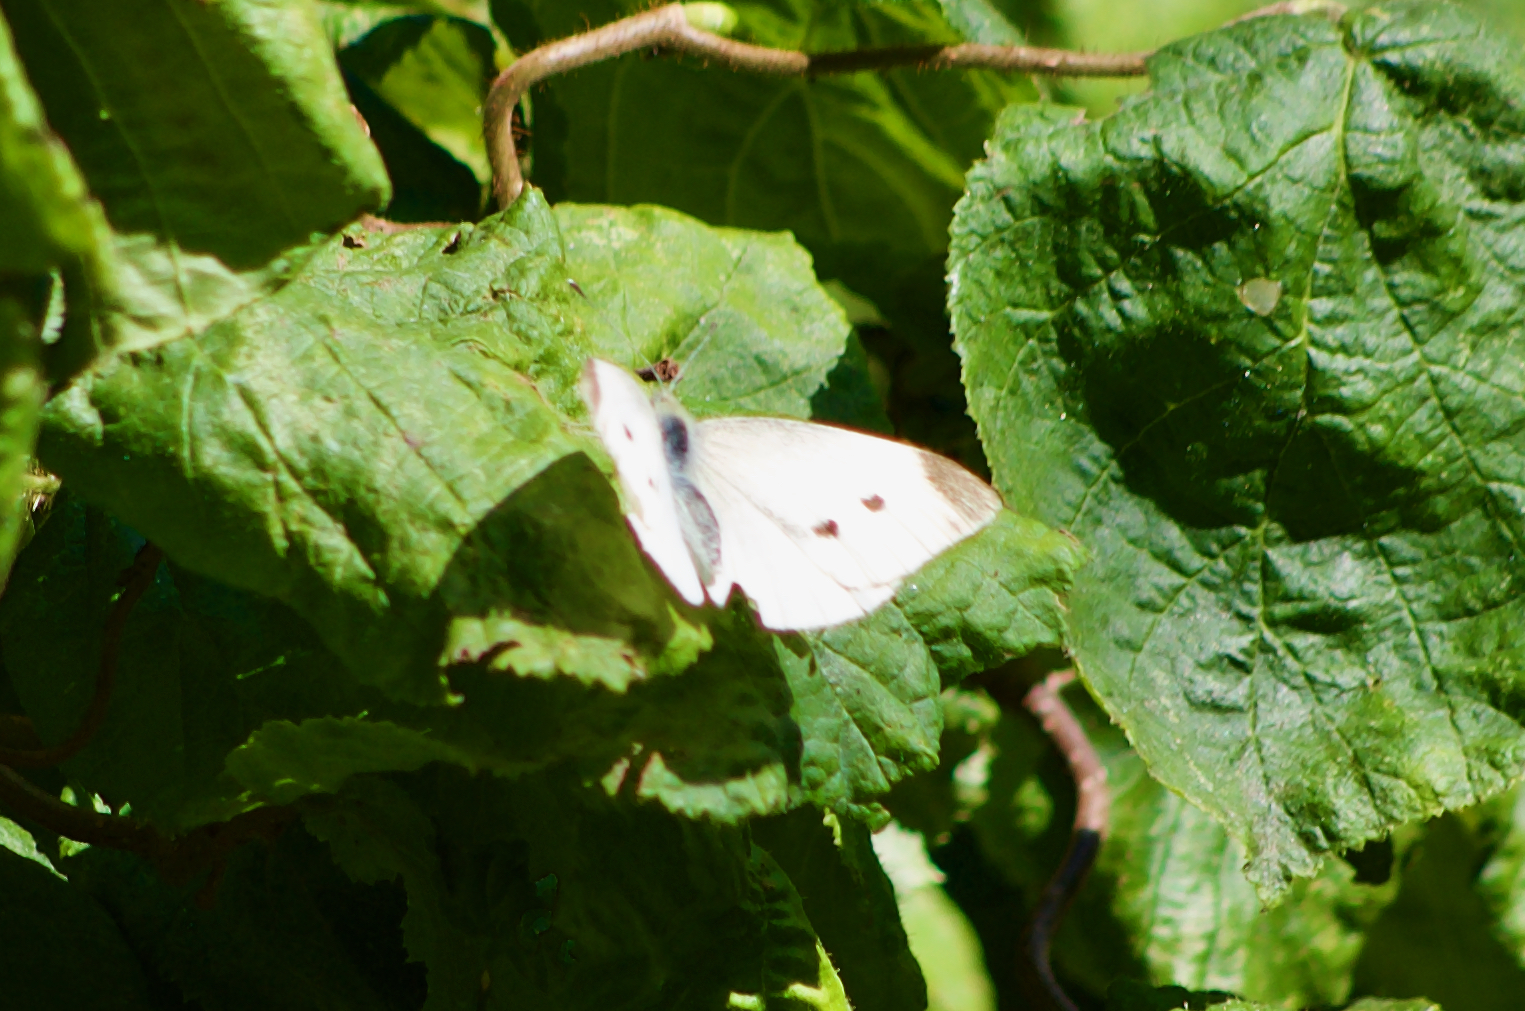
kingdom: Animalia
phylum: Arthropoda
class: Insecta
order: Lepidoptera
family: Pieridae
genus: Pieris
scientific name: Pieris rapae
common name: Small white
